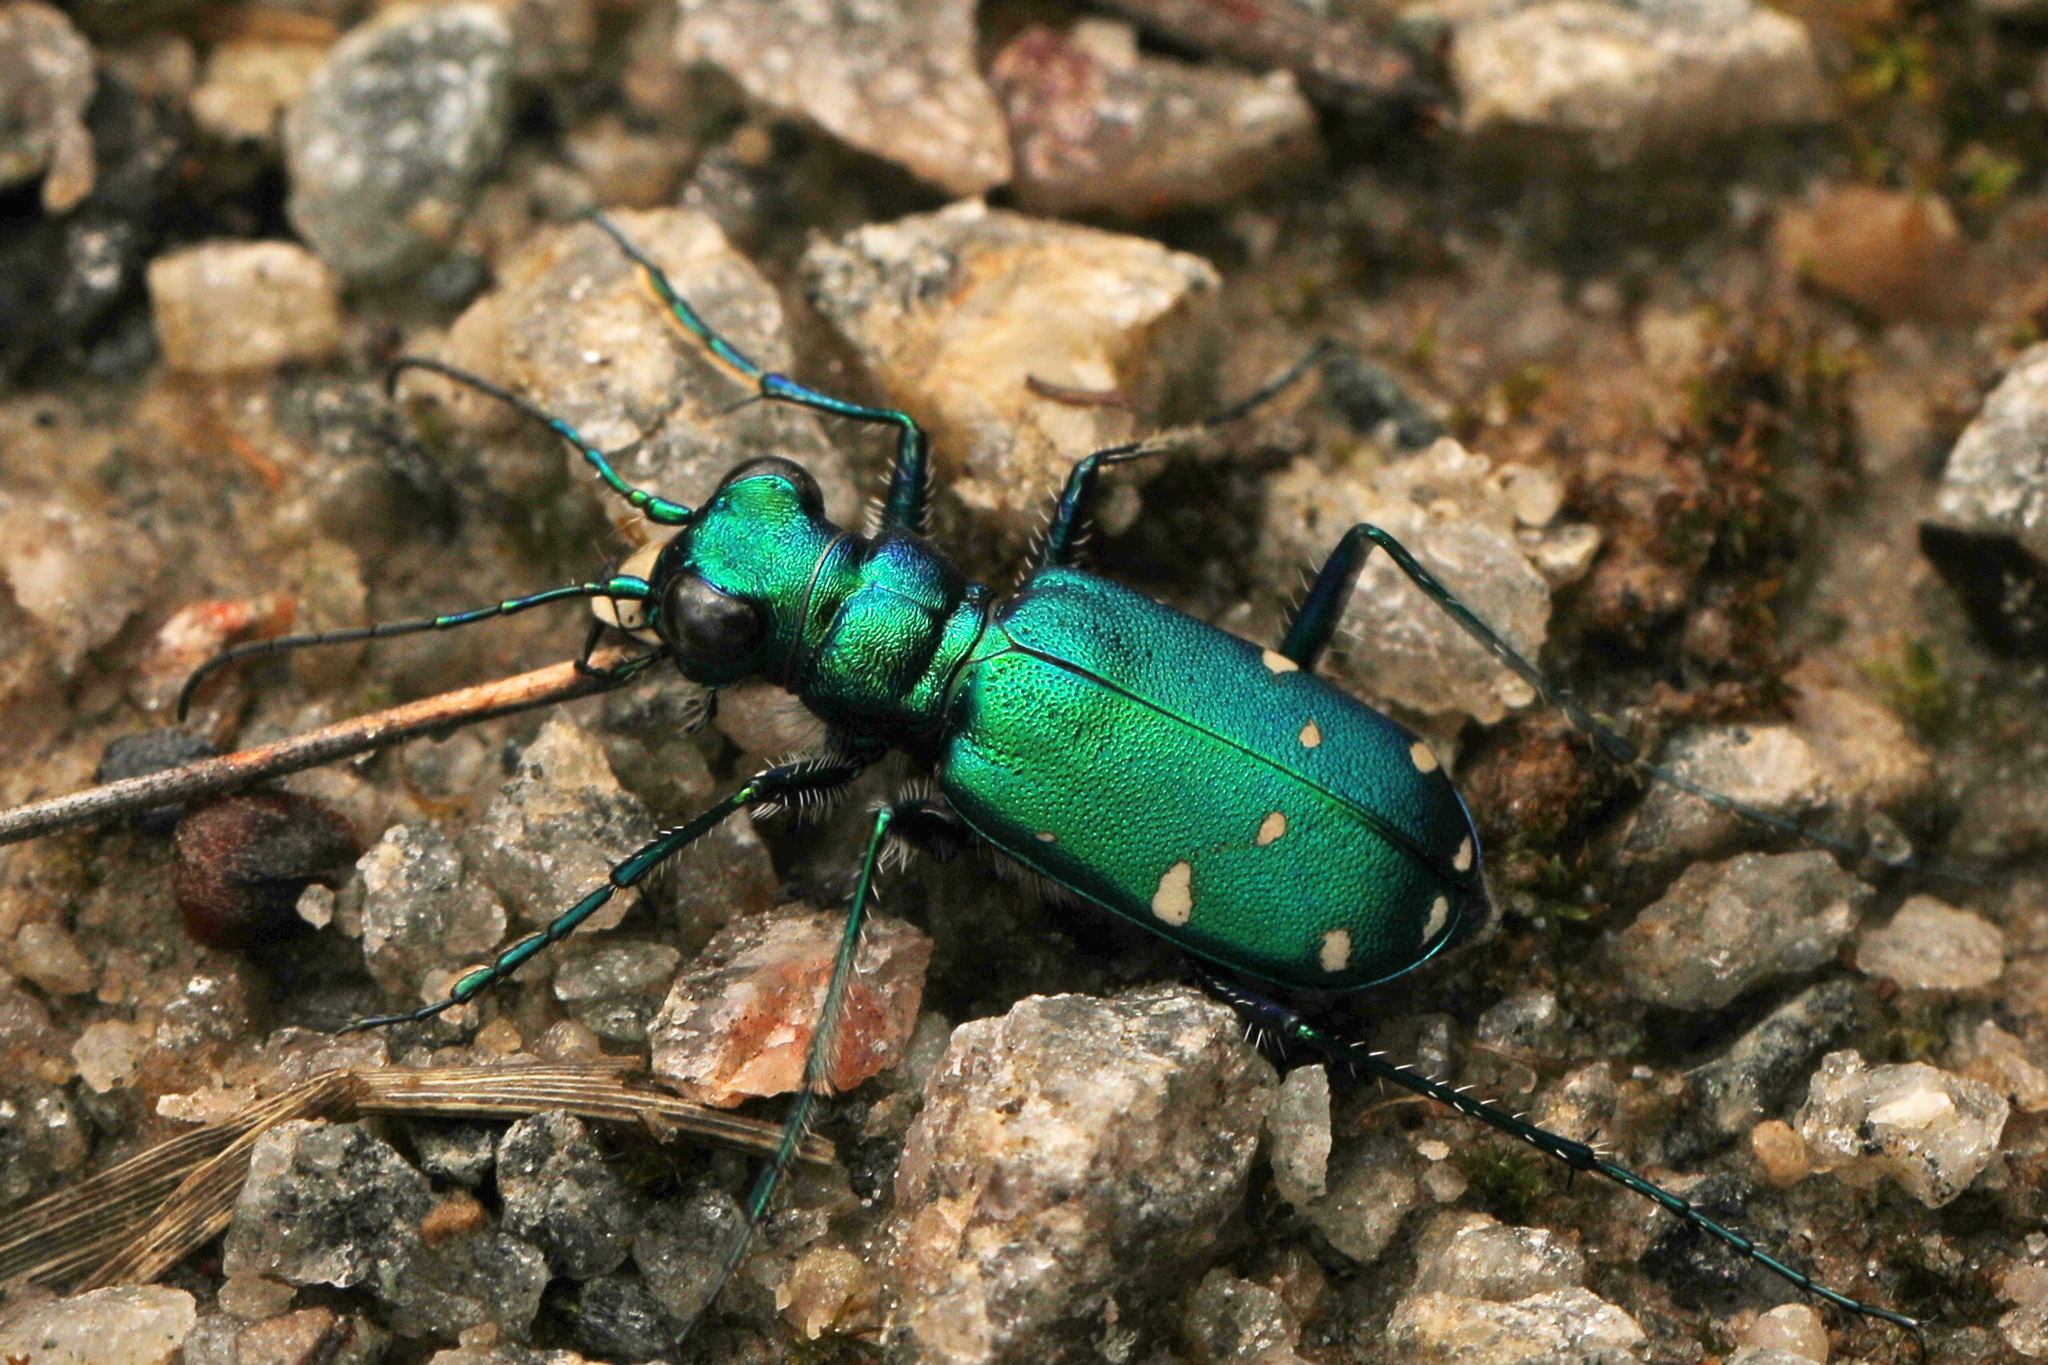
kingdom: Animalia
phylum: Arthropoda
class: Insecta
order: Coleoptera
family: Carabidae
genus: Cicindela
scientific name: Cicindela sexguttata
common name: Six-spotted tiger beetle
